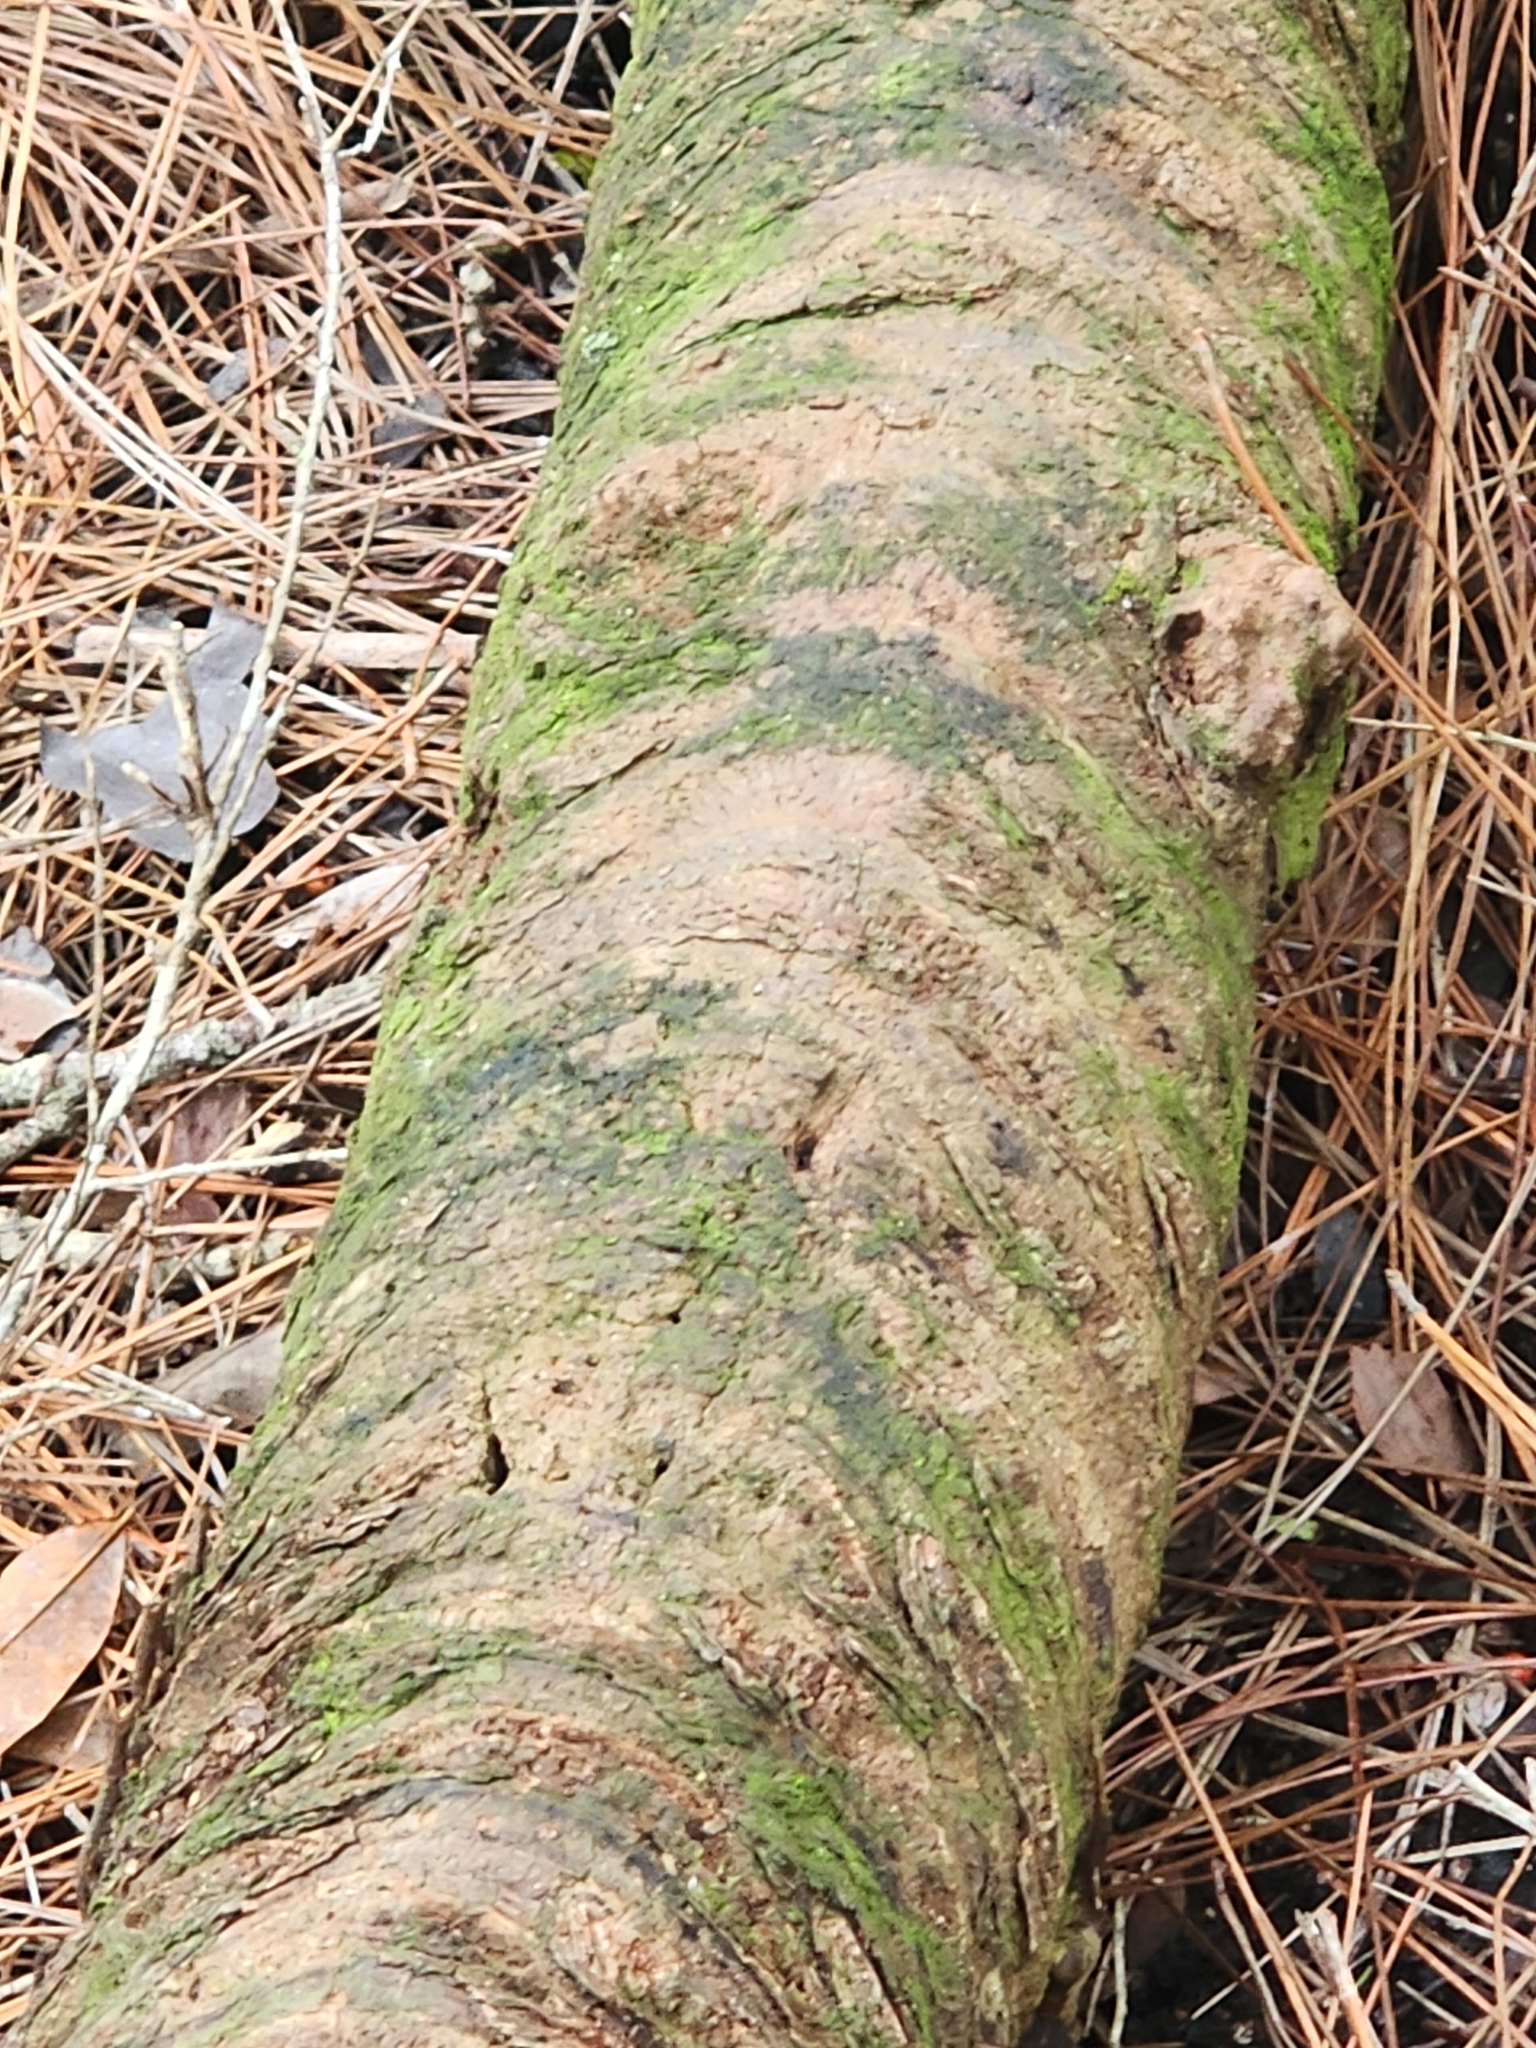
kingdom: Plantae
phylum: Tracheophyta
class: Liliopsida
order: Arecales
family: Arecaceae
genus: Serenoa
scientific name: Serenoa repens
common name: Saw-palmetto
